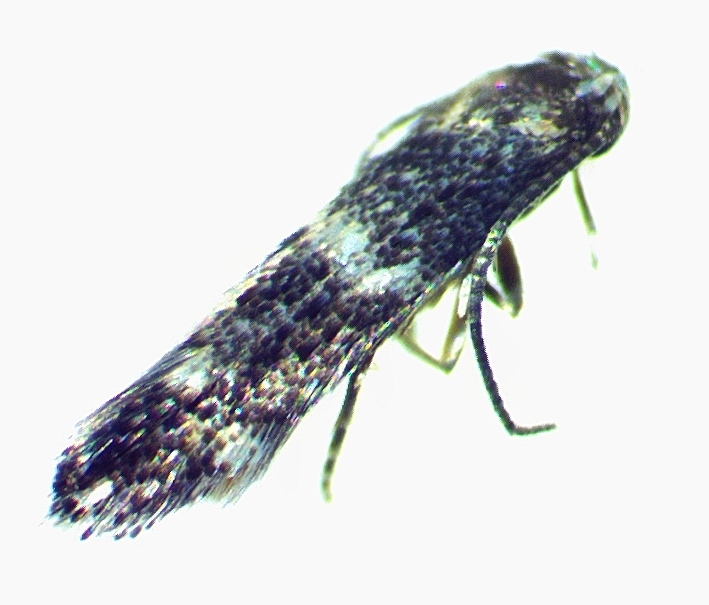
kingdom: Animalia
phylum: Arthropoda
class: Insecta
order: Lepidoptera
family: Elachistidae
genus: Elachista
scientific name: Elachista illectella
